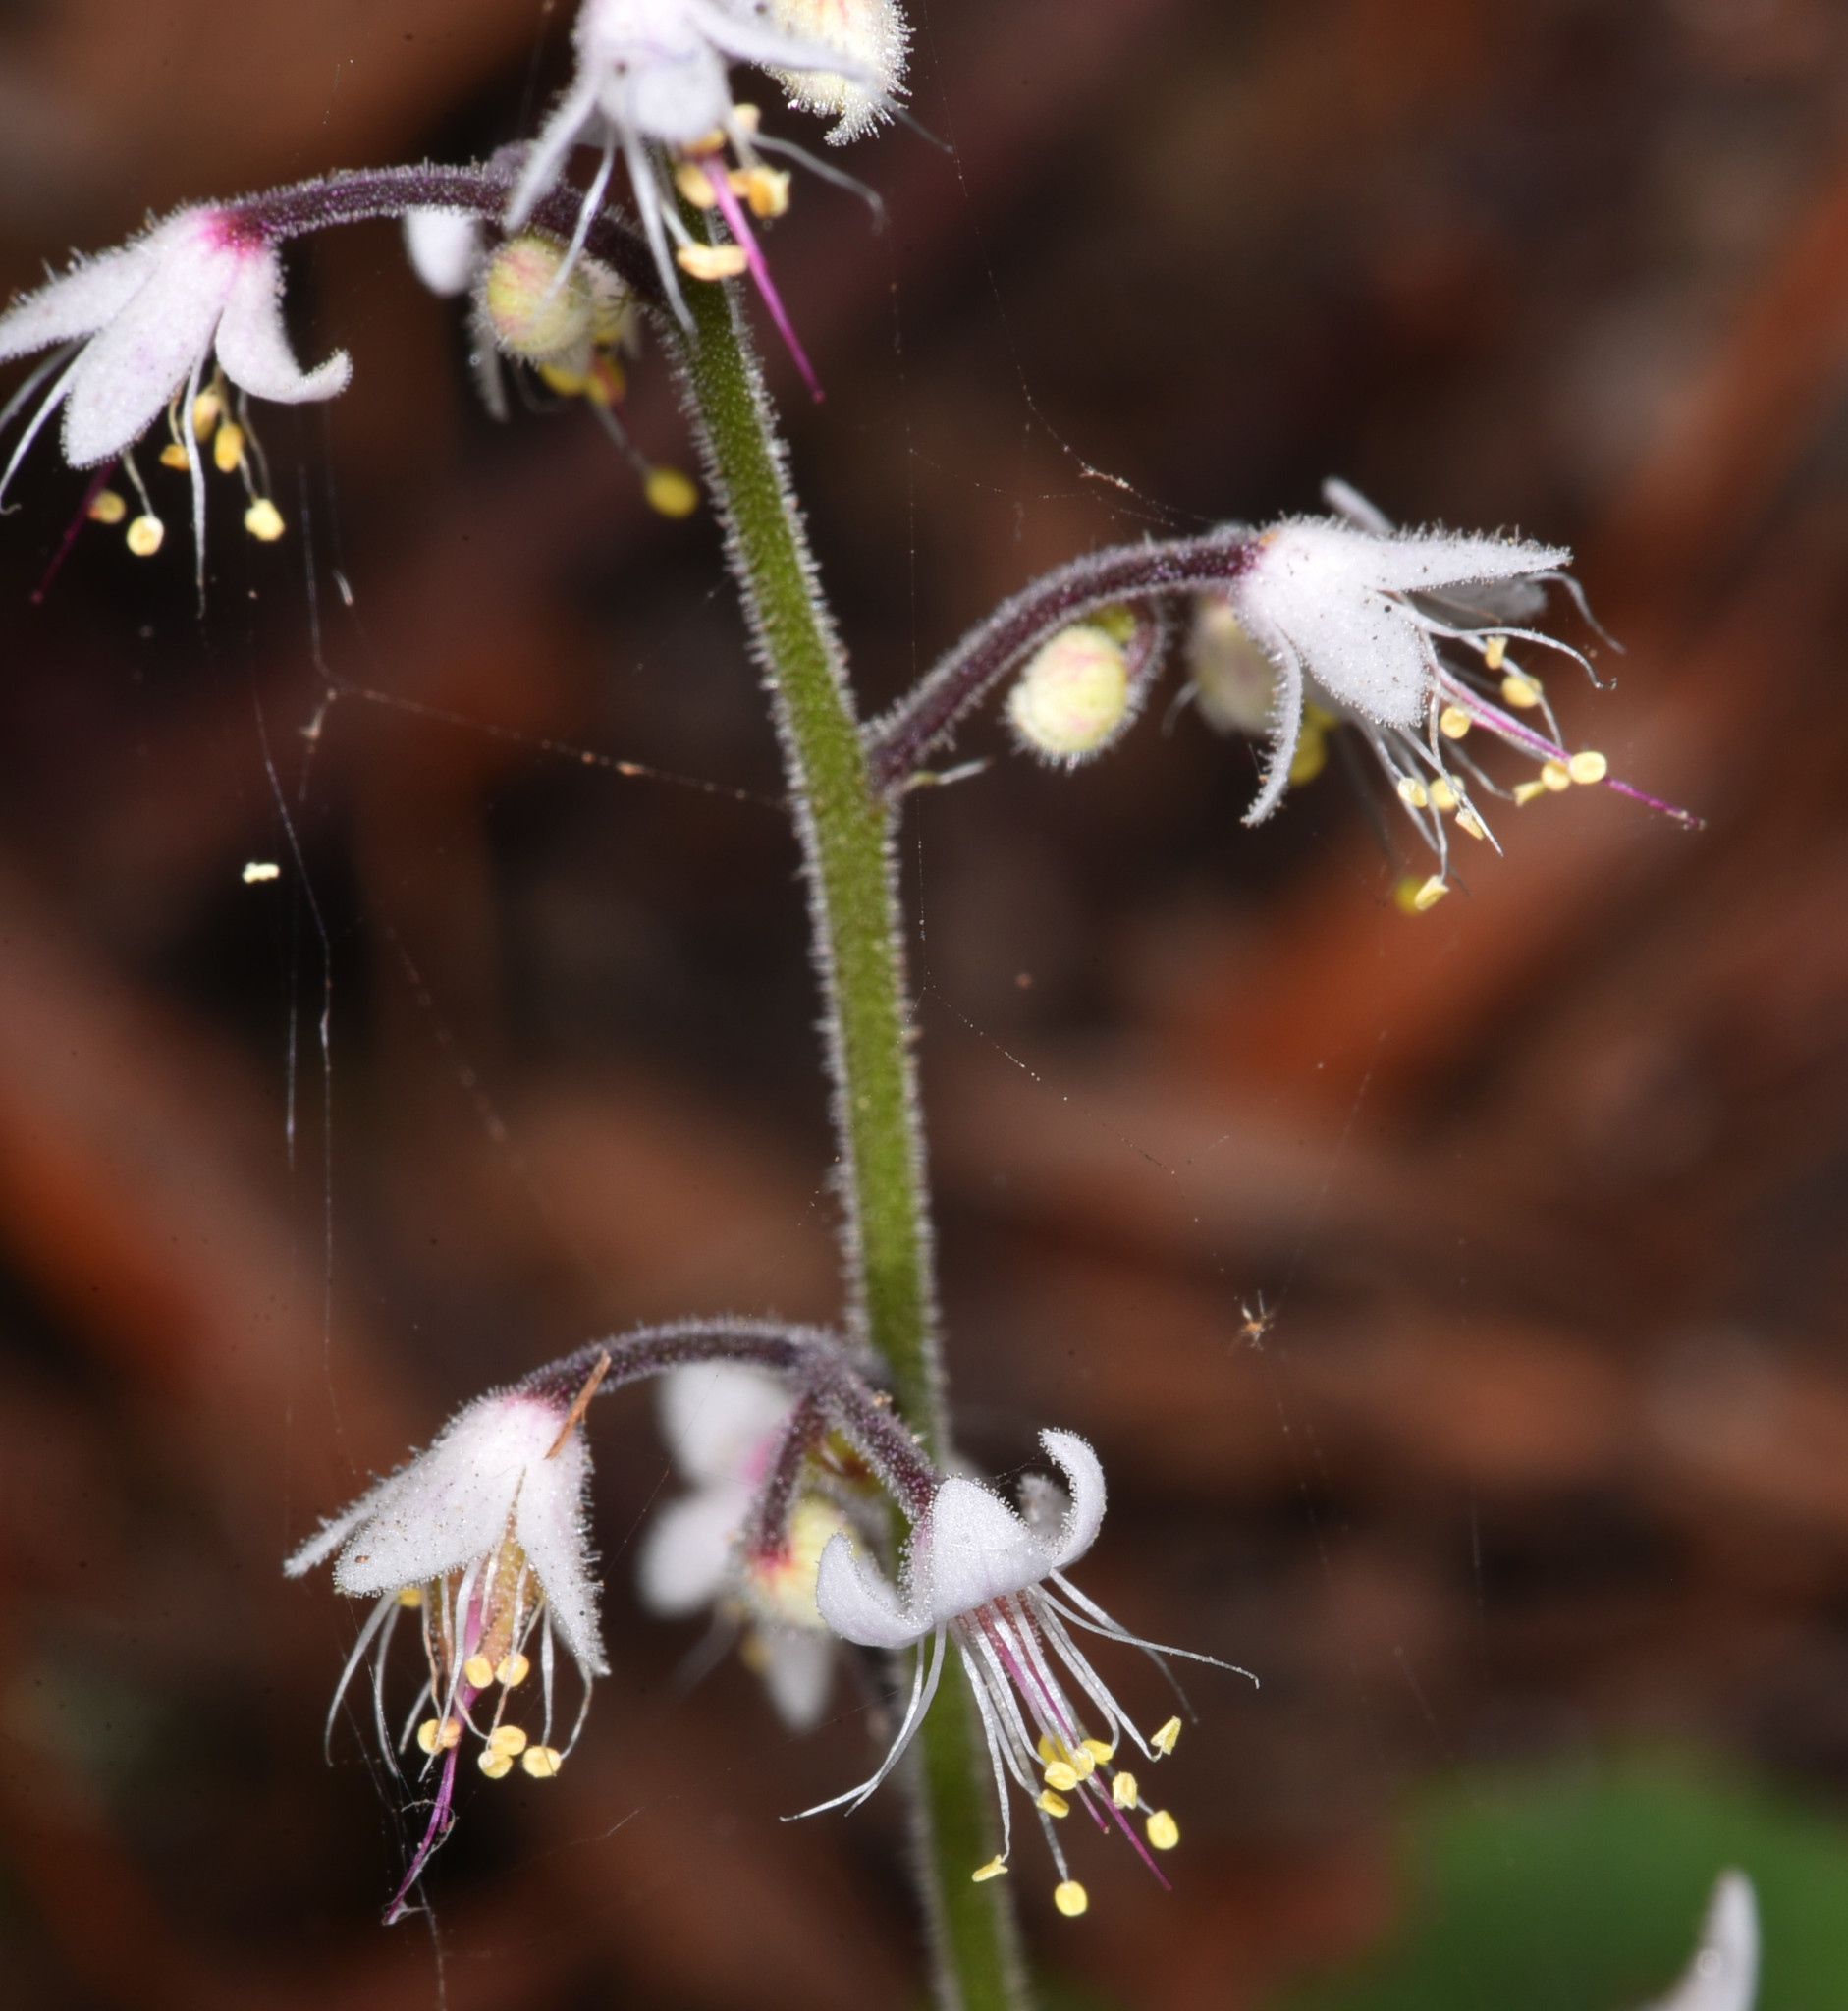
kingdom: Plantae
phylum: Tracheophyta
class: Magnoliopsida
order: Saxifragales
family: Saxifragaceae
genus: Tiarella
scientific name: Tiarella trifoliata
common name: Sugar-scoop
